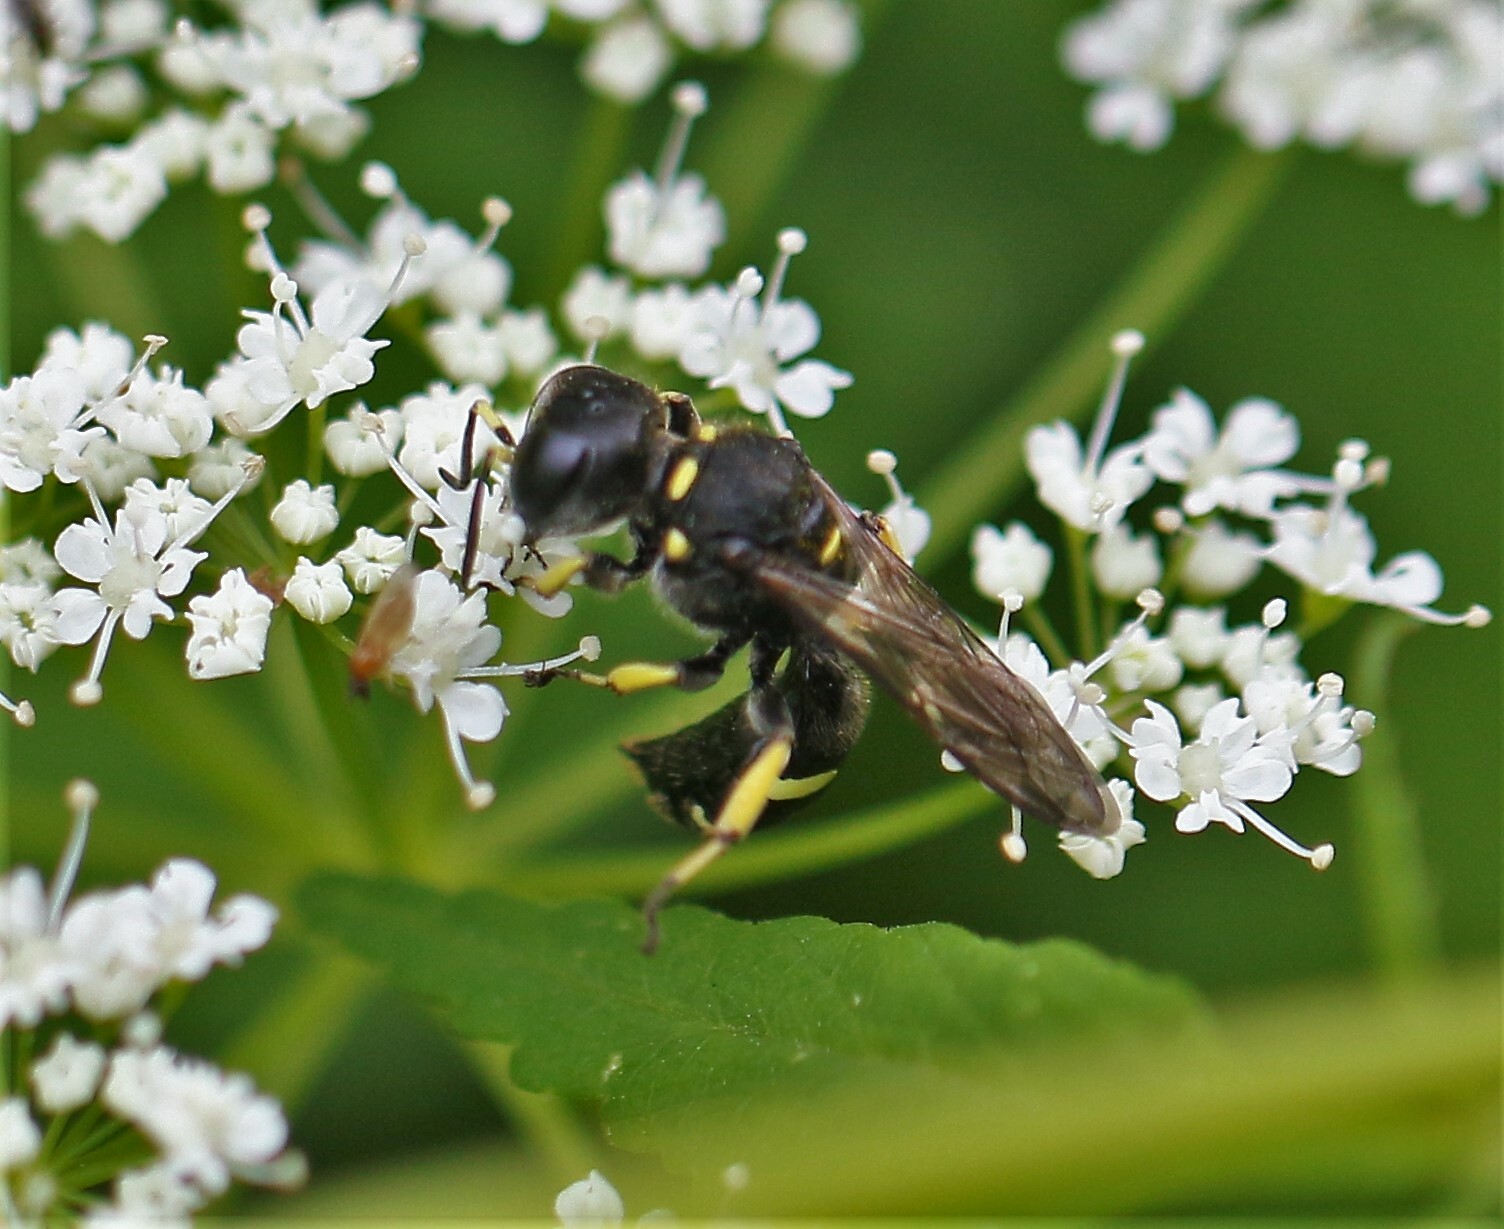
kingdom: Animalia
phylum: Arthropoda
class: Insecta
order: Hymenoptera
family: Crabronidae
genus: Ectemnius
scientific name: Ectemnius continuus
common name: Common ectemnius
